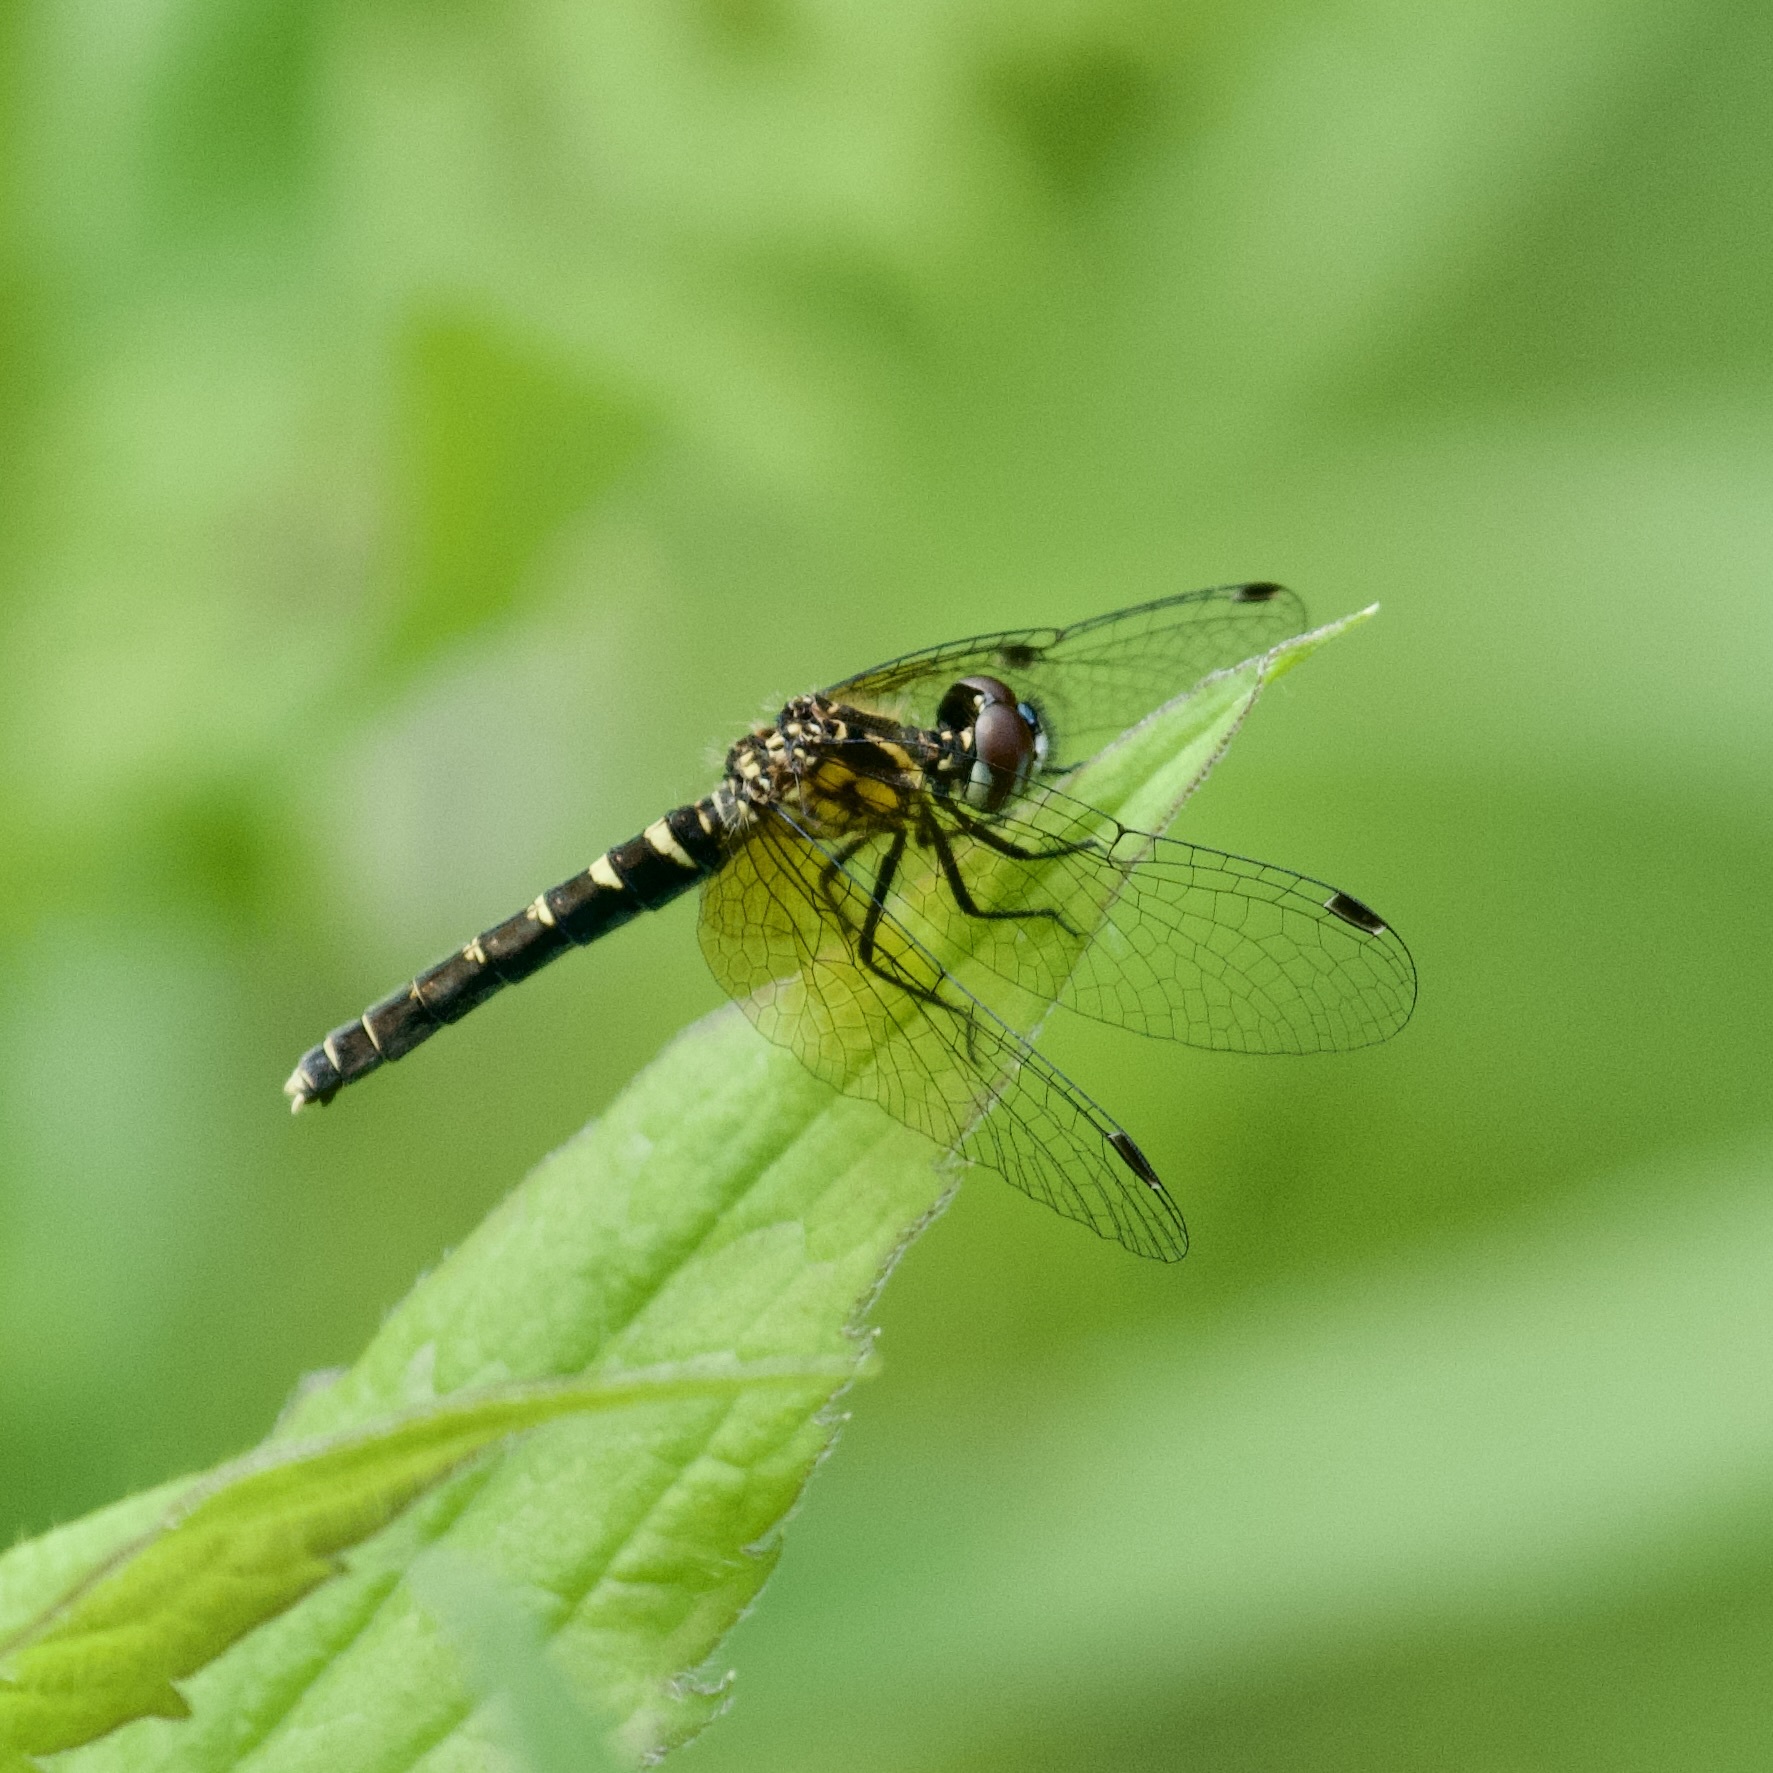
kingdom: Animalia
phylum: Arthropoda
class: Insecta
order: Odonata
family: Libellulidae
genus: Nannothemis
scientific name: Nannothemis bella
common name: Elfin skimmer
